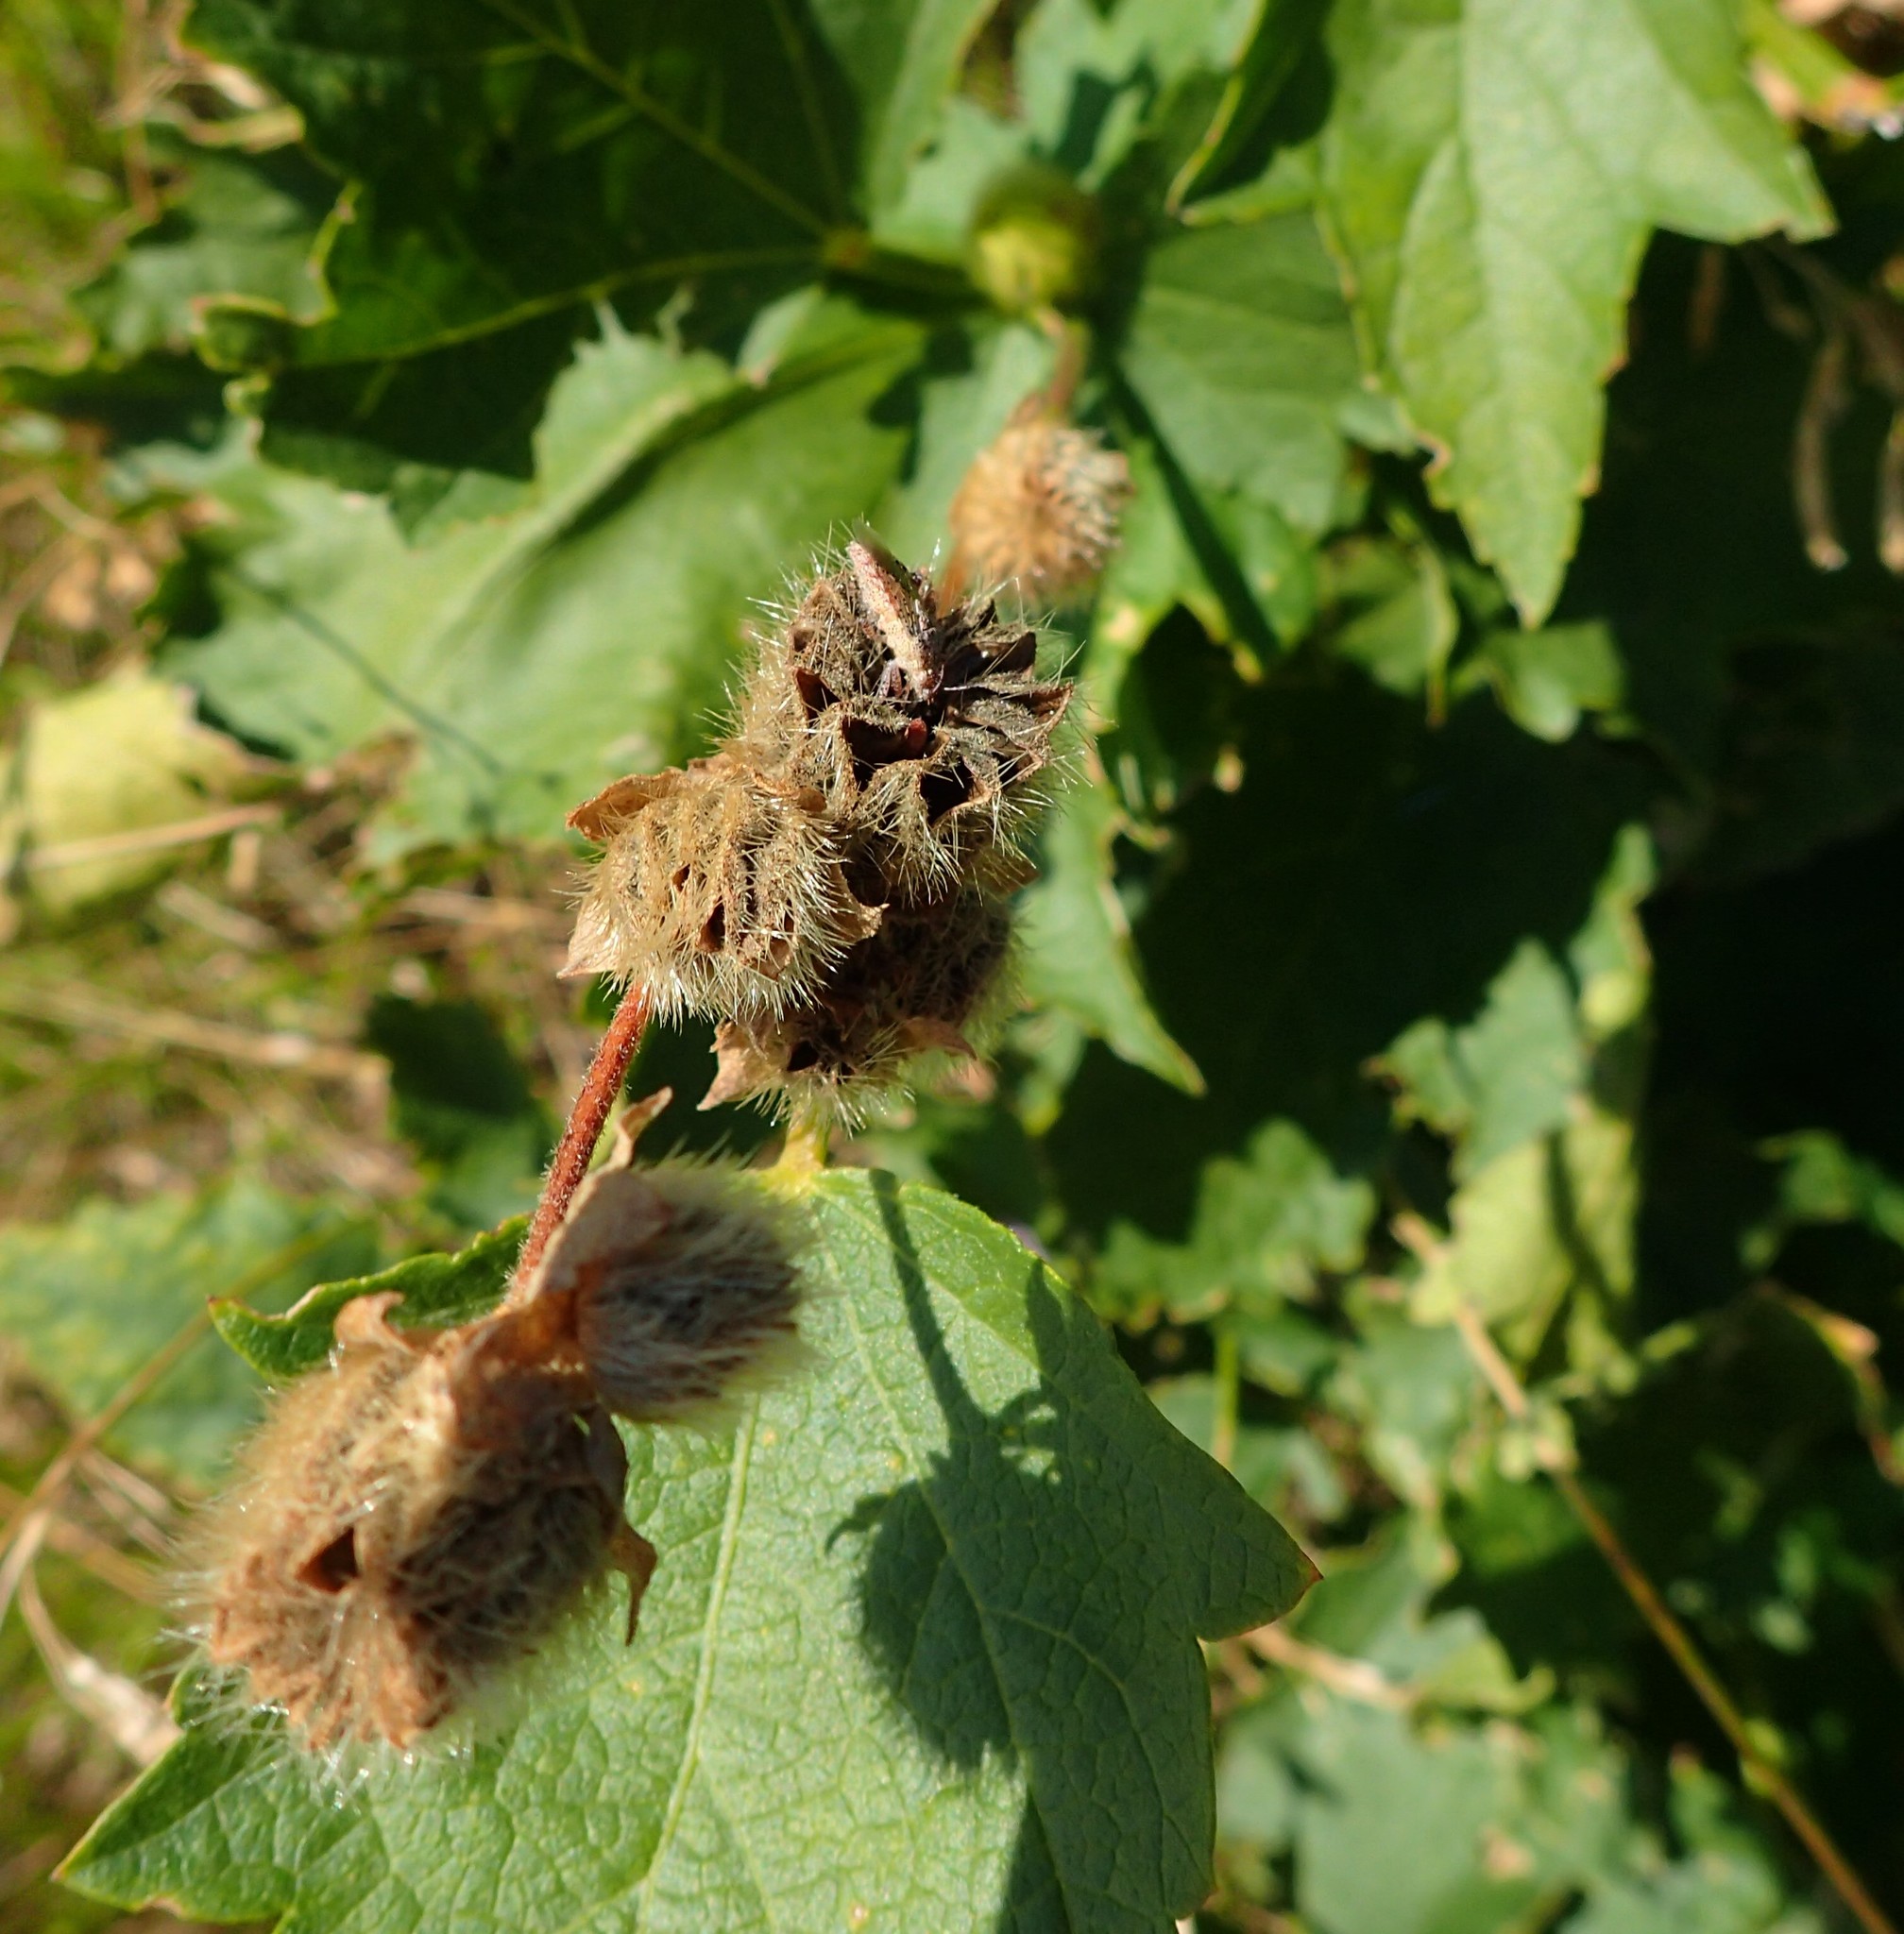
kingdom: Plantae
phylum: Tracheophyta
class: Magnoliopsida
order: Malvales
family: Malvaceae
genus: Iliamna
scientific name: Iliamna rivularis
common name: Wild hollyhock
